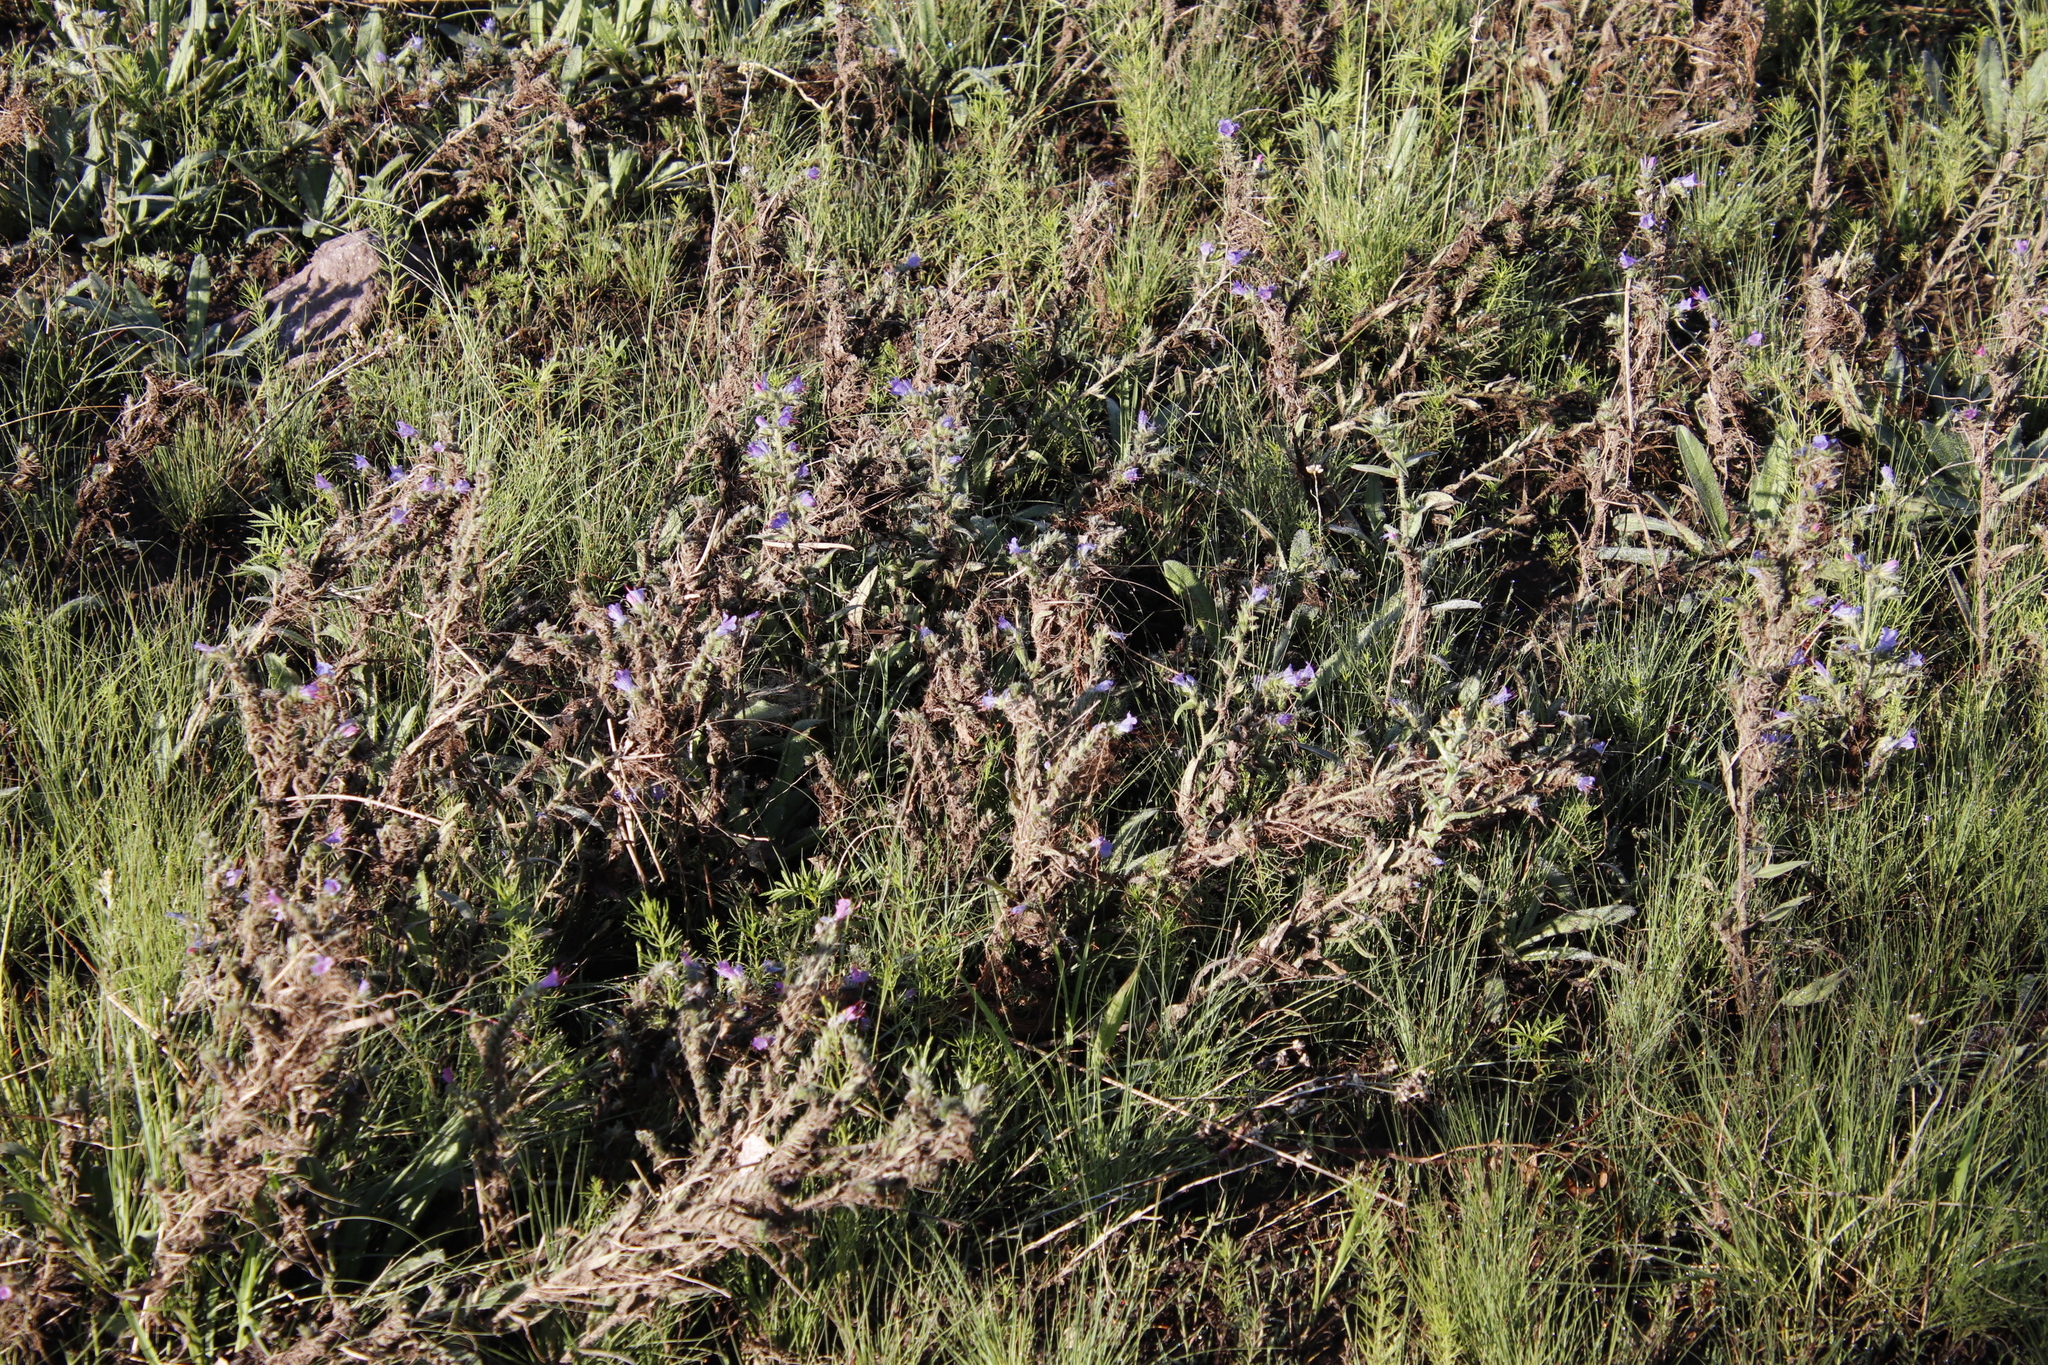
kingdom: Plantae
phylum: Tracheophyta
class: Magnoliopsida
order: Boraginales
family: Boraginaceae
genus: Echium
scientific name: Echium vulgare
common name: Common viper's bugloss
